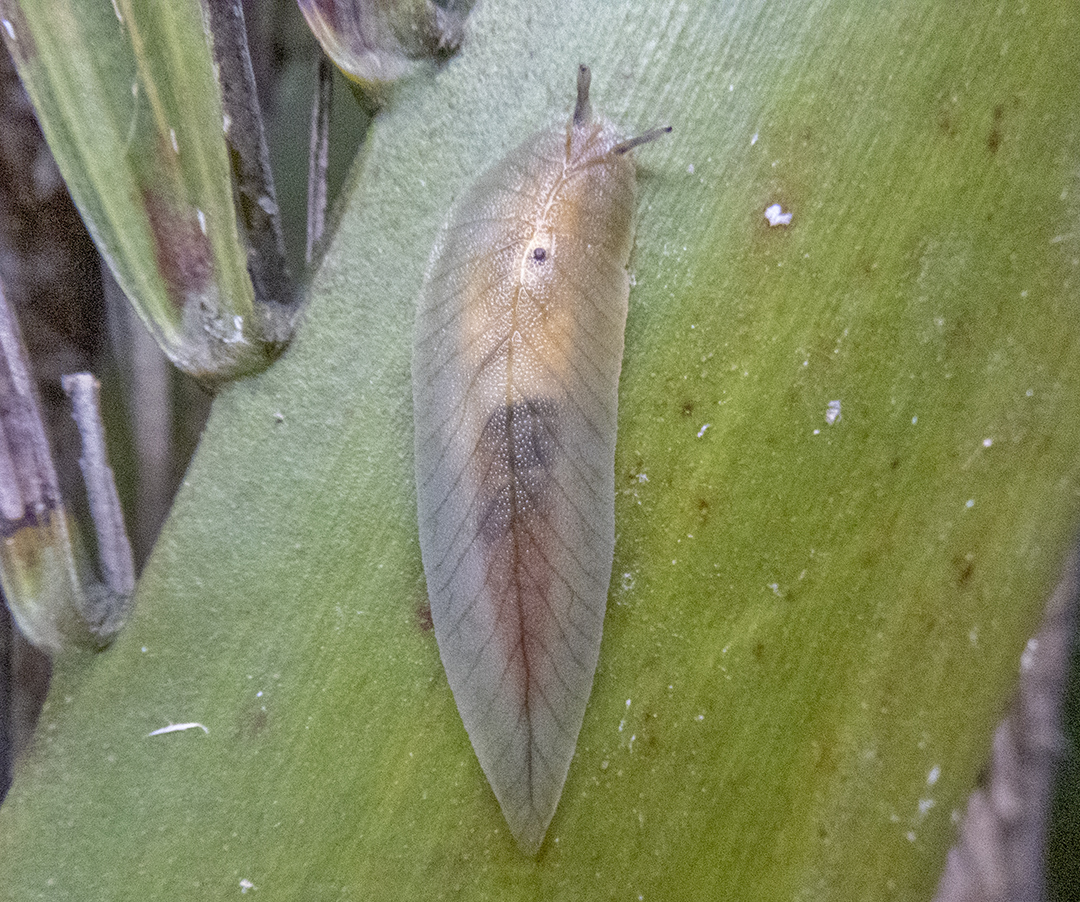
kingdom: Animalia
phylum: Mollusca
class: Gastropoda
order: Stylommatophora
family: Athoracophoridae
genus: Athoracophorus
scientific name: Athoracophorus bitentaculatus
